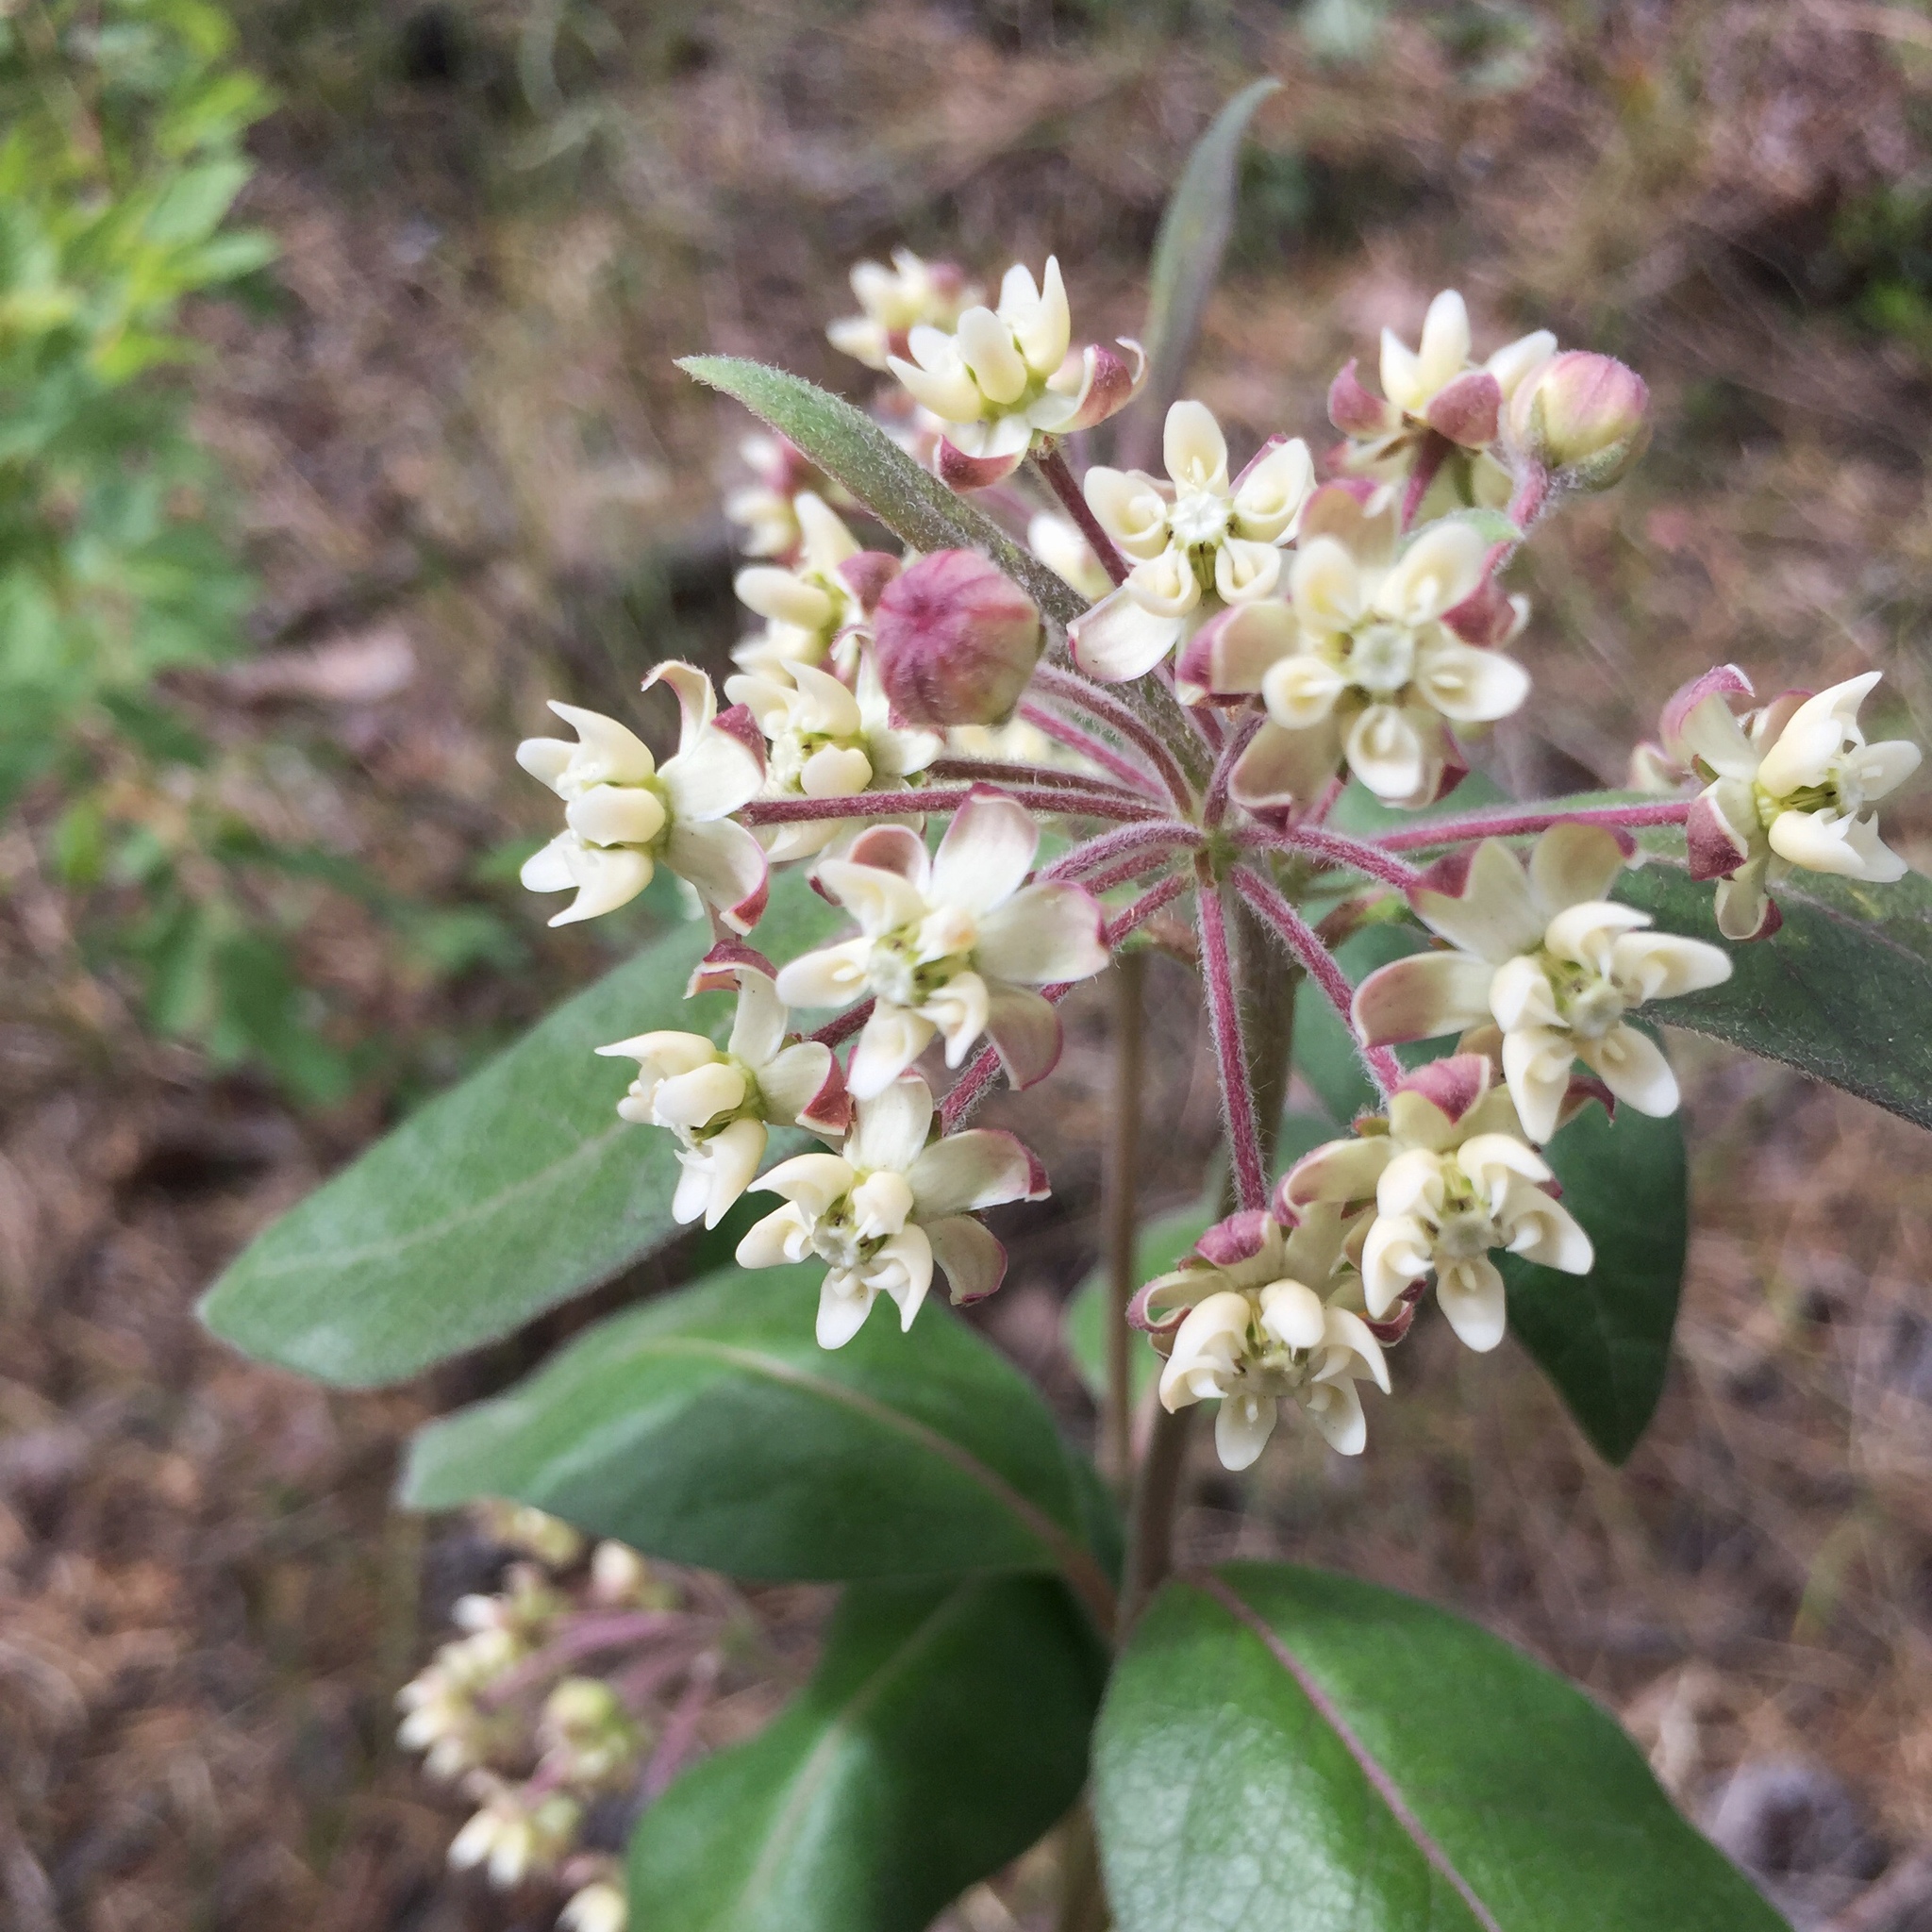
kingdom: Plantae
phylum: Tracheophyta
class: Magnoliopsida
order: Gentianales
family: Apocynaceae
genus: Asclepias
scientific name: Asclepias ovalifolia
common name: Dwarf milkweed
